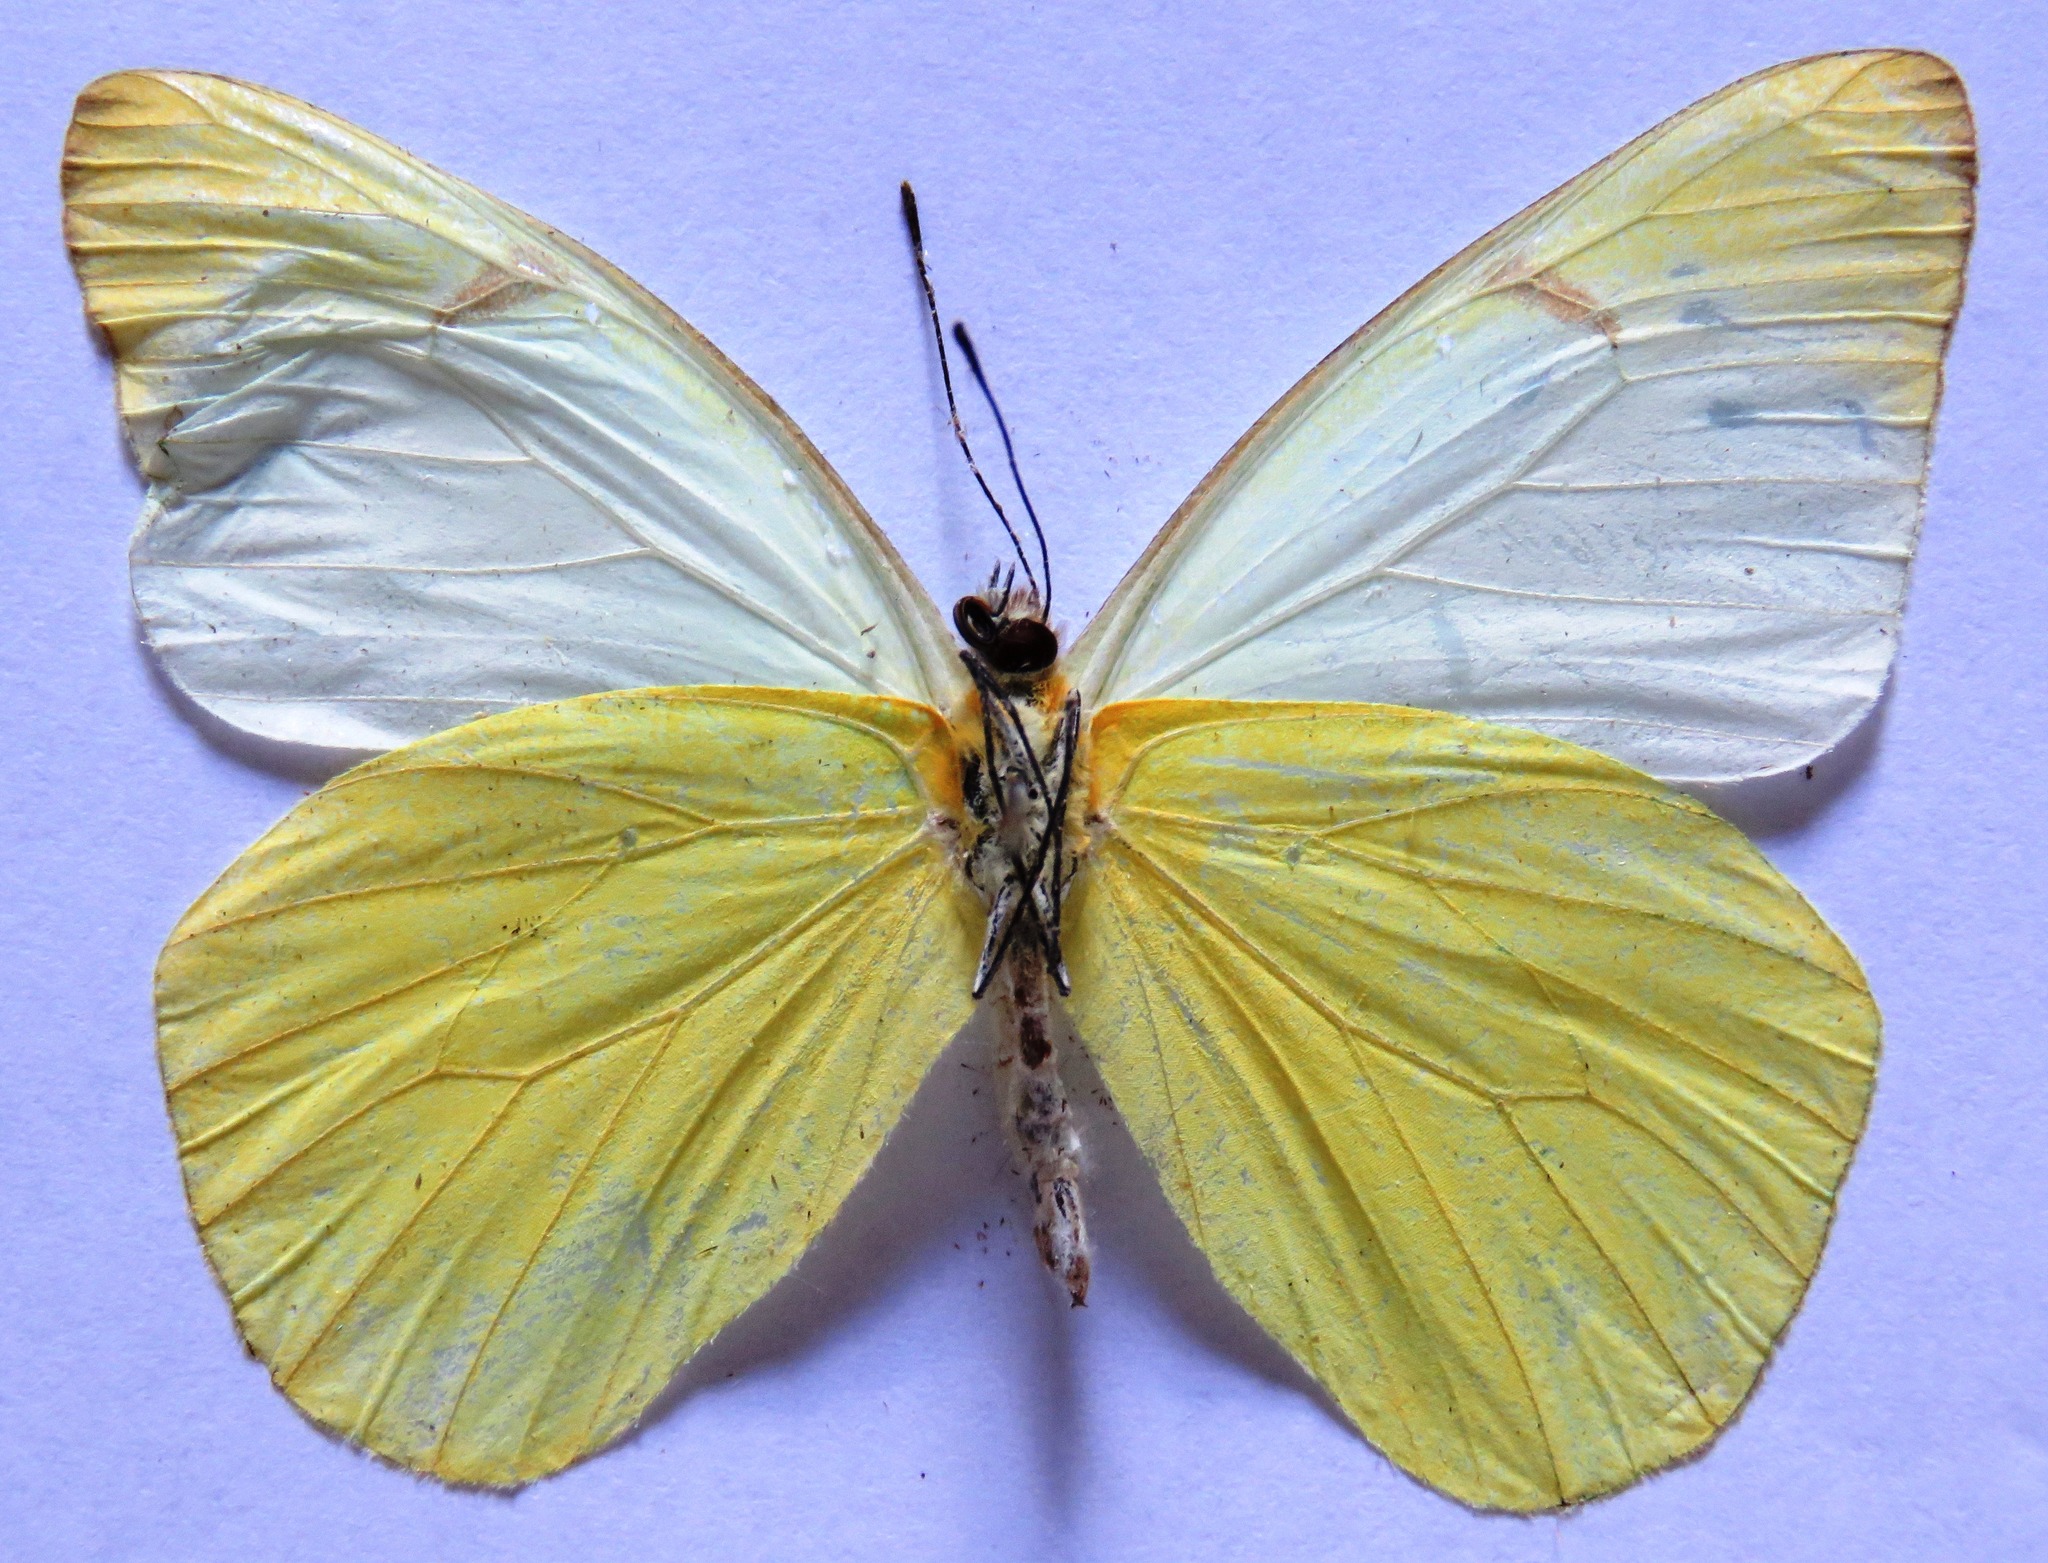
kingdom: Animalia
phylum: Arthropoda
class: Insecta
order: Lepidoptera
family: Pieridae
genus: Melete
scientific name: Melete lycimnia
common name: Common melwhite
